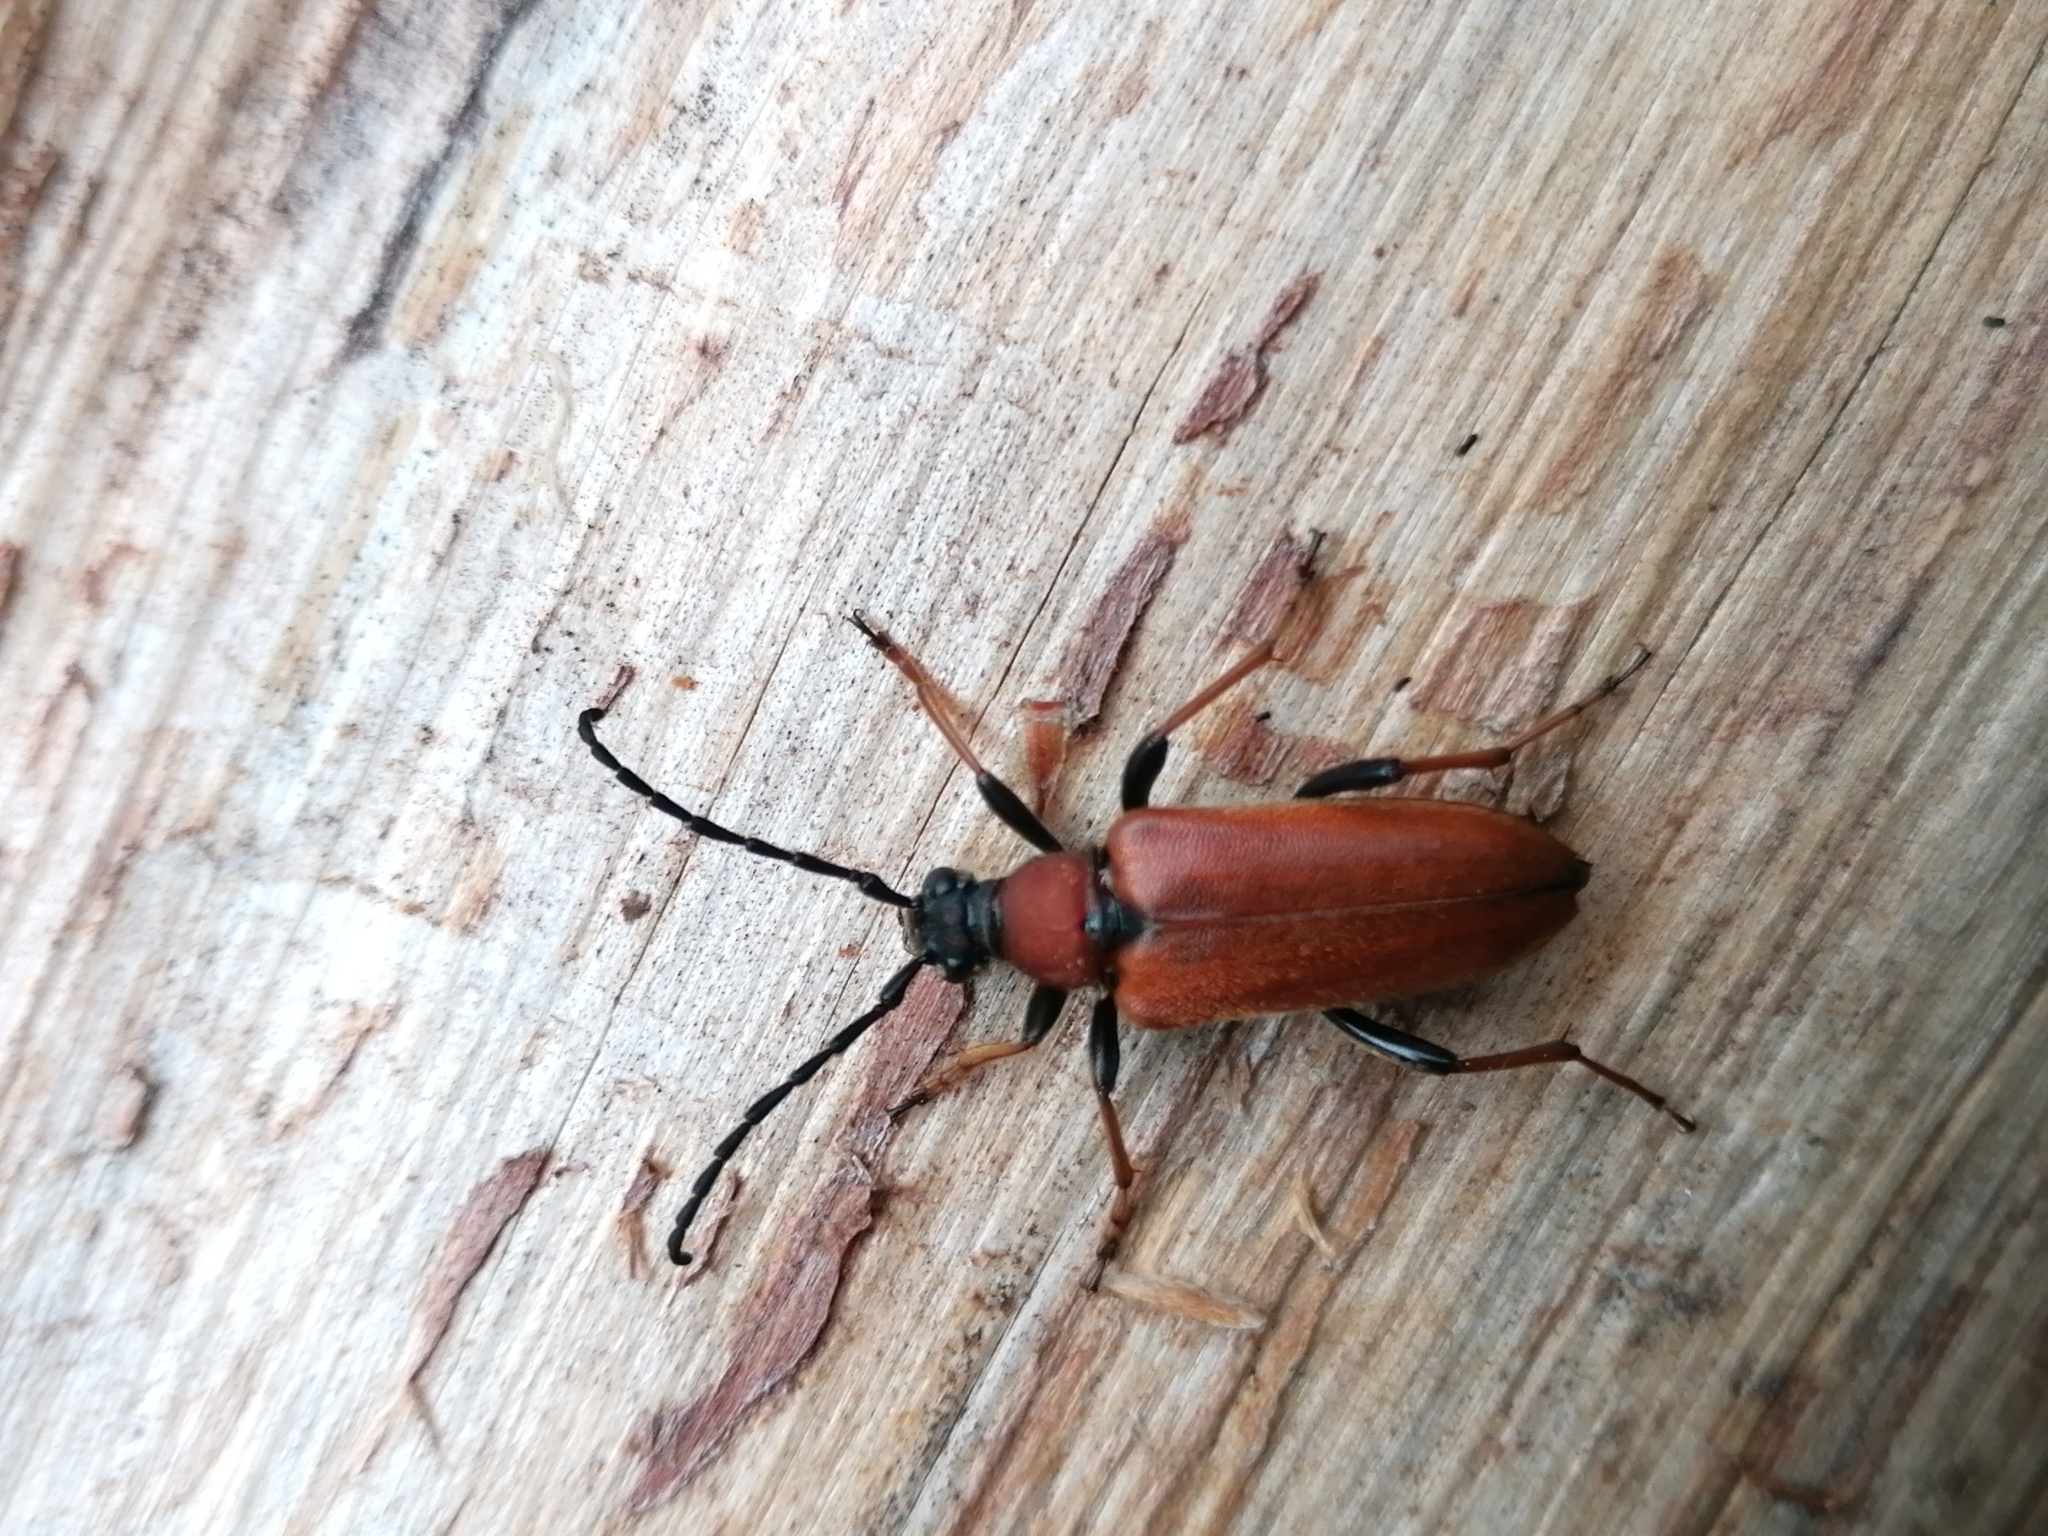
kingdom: Animalia
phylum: Arthropoda
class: Insecta
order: Coleoptera
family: Cerambycidae
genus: Stictoleptura
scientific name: Stictoleptura rubra
